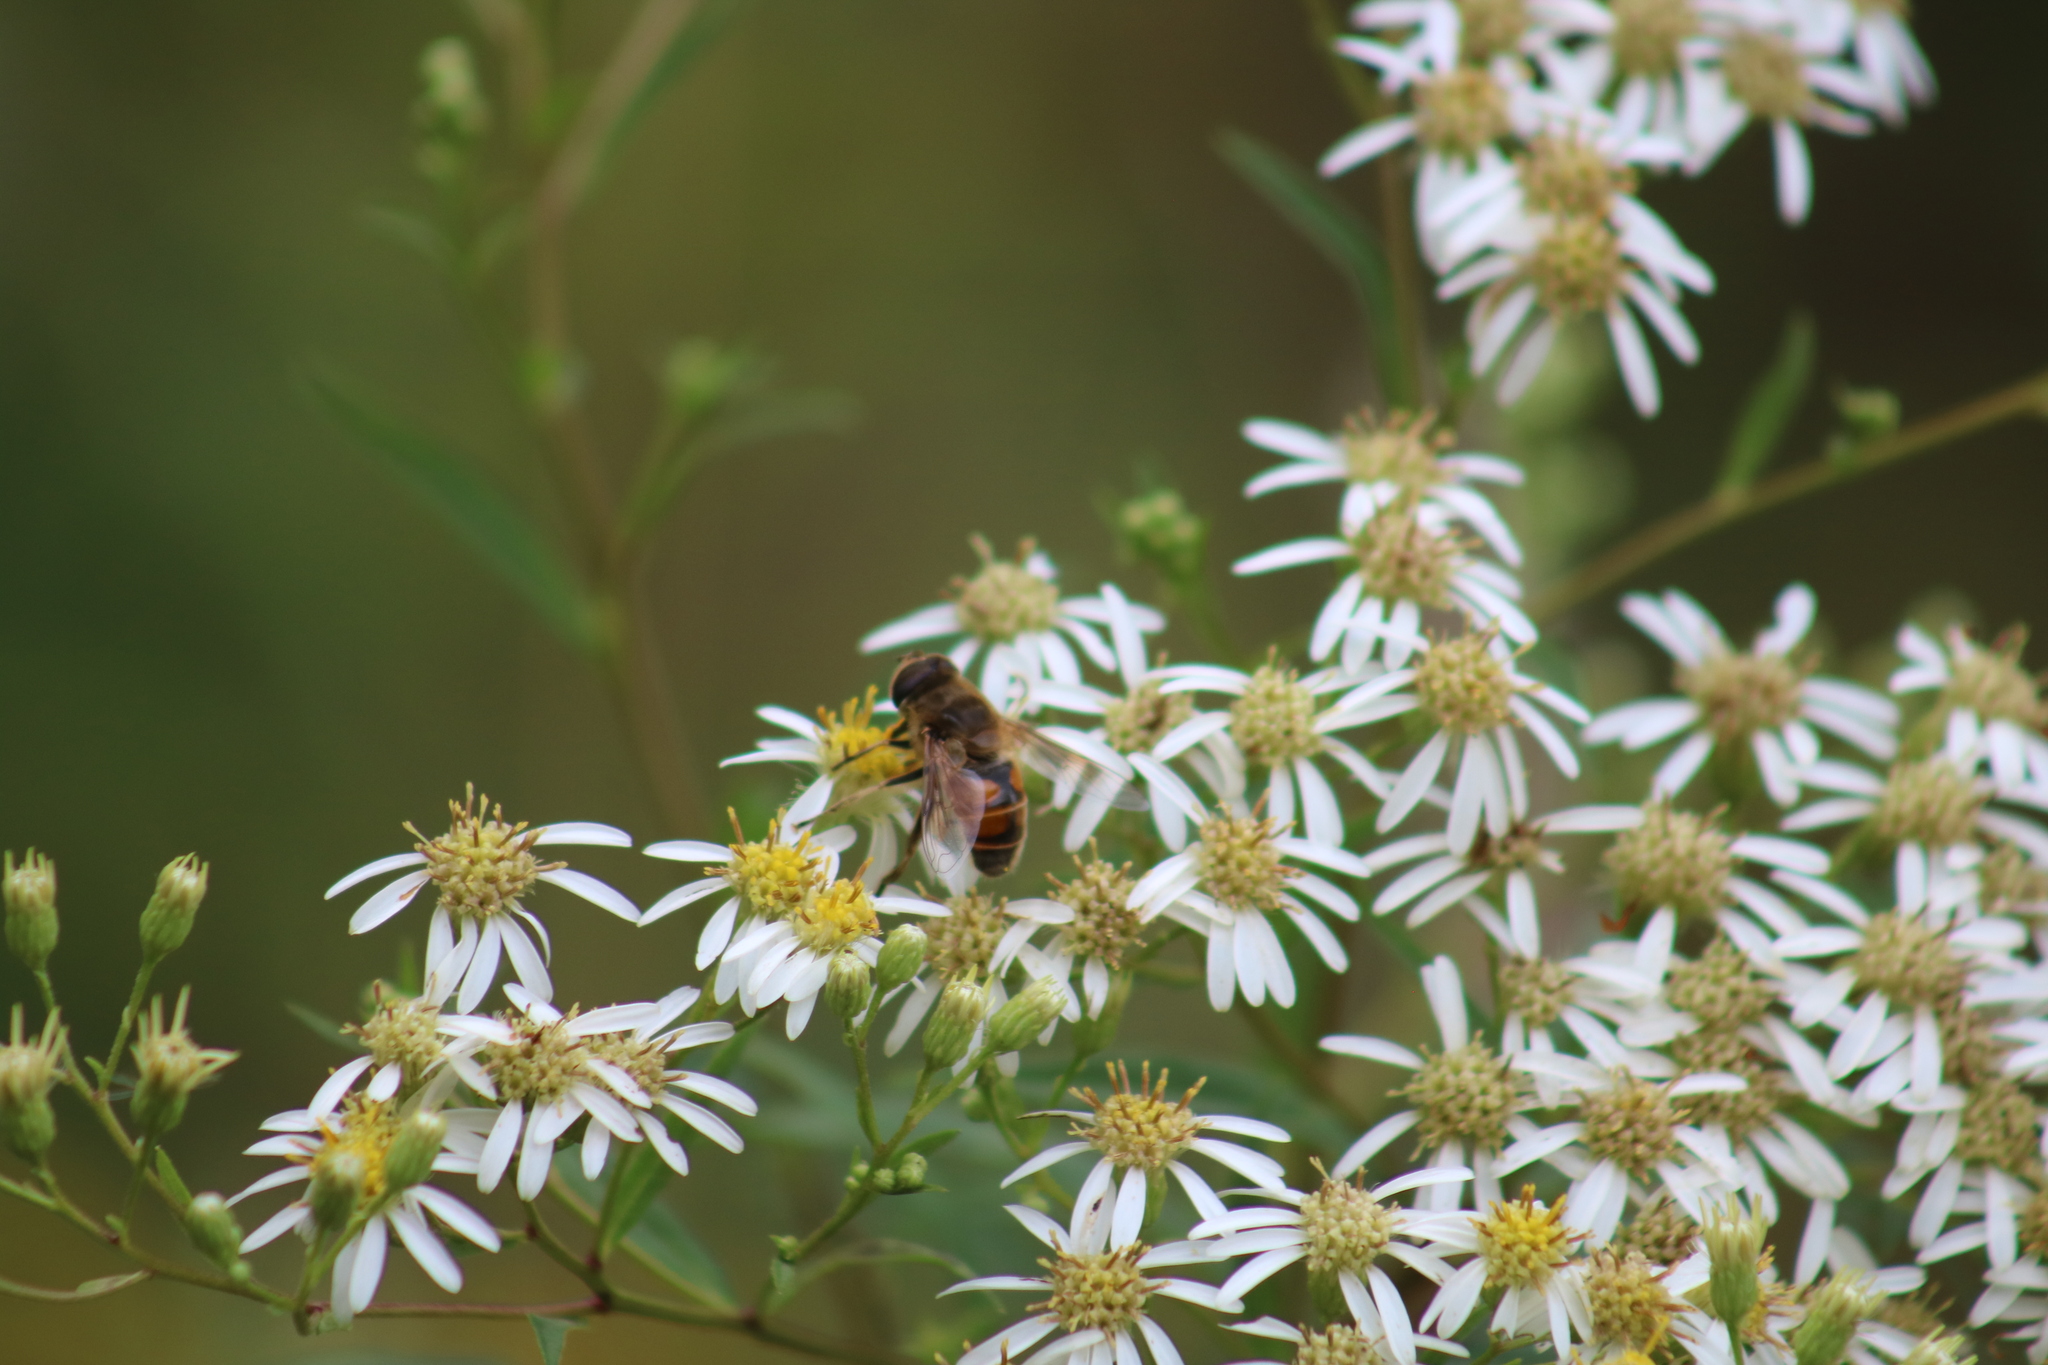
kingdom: Animalia
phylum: Arthropoda
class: Insecta
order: Diptera
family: Syrphidae
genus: Eristalis
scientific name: Eristalis tenax
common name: Drone fly
